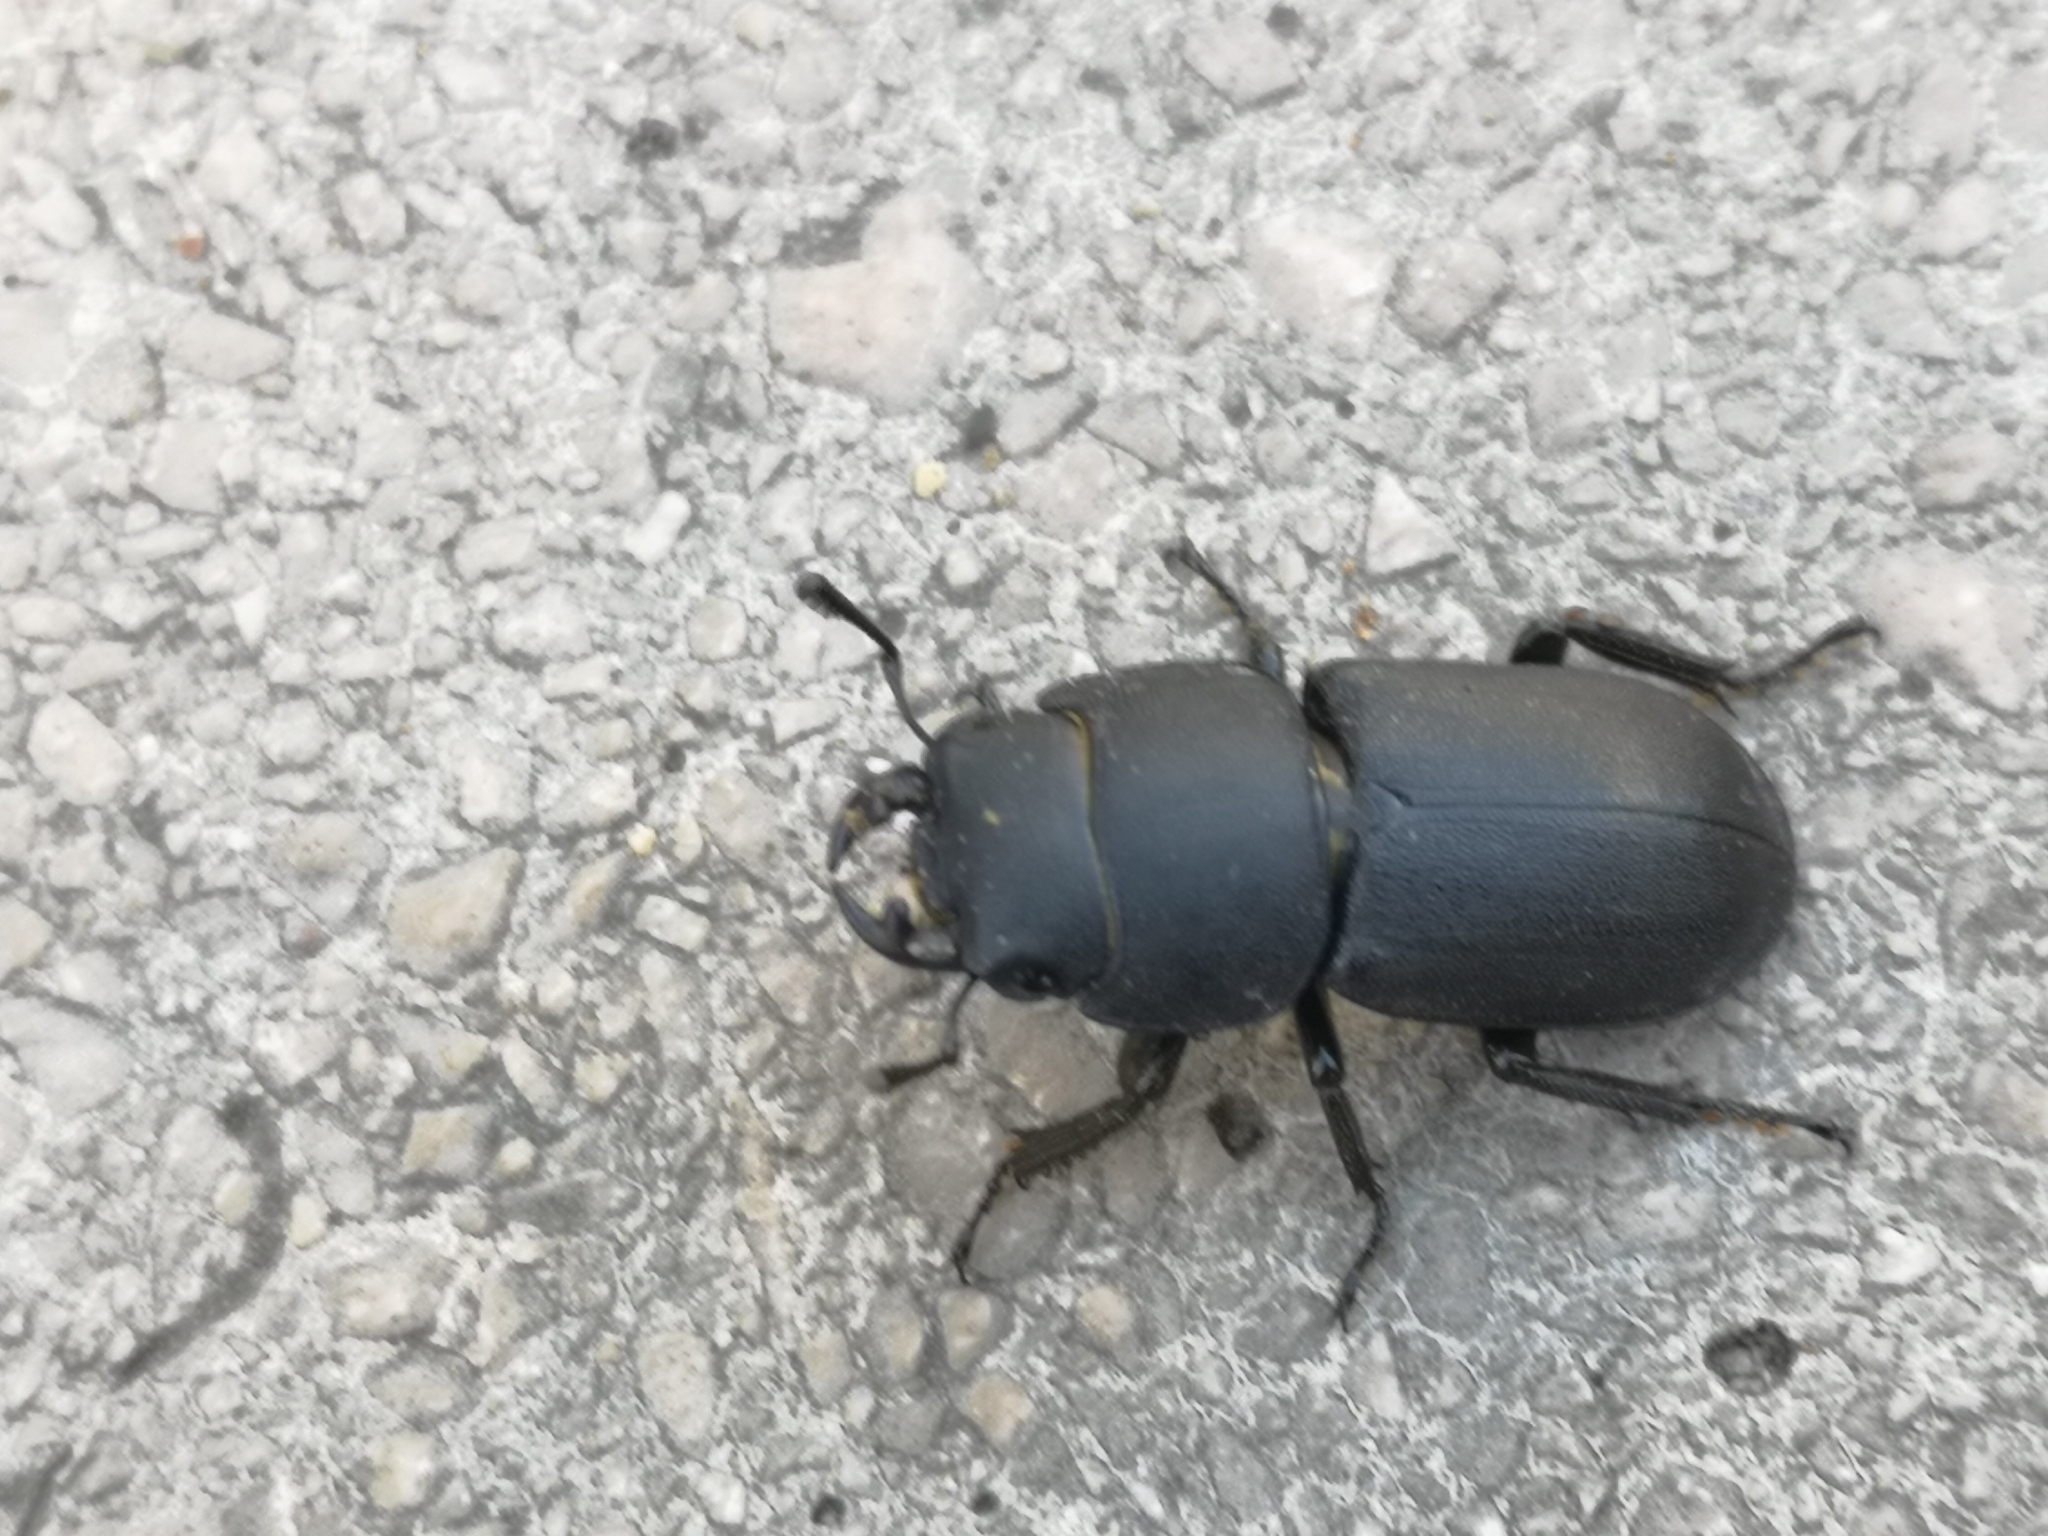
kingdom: Animalia
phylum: Arthropoda
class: Insecta
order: Coleoptera
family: Lucanidae
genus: Dorcus
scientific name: Dorcus parallelipipedus
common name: Lesser stag beetle
